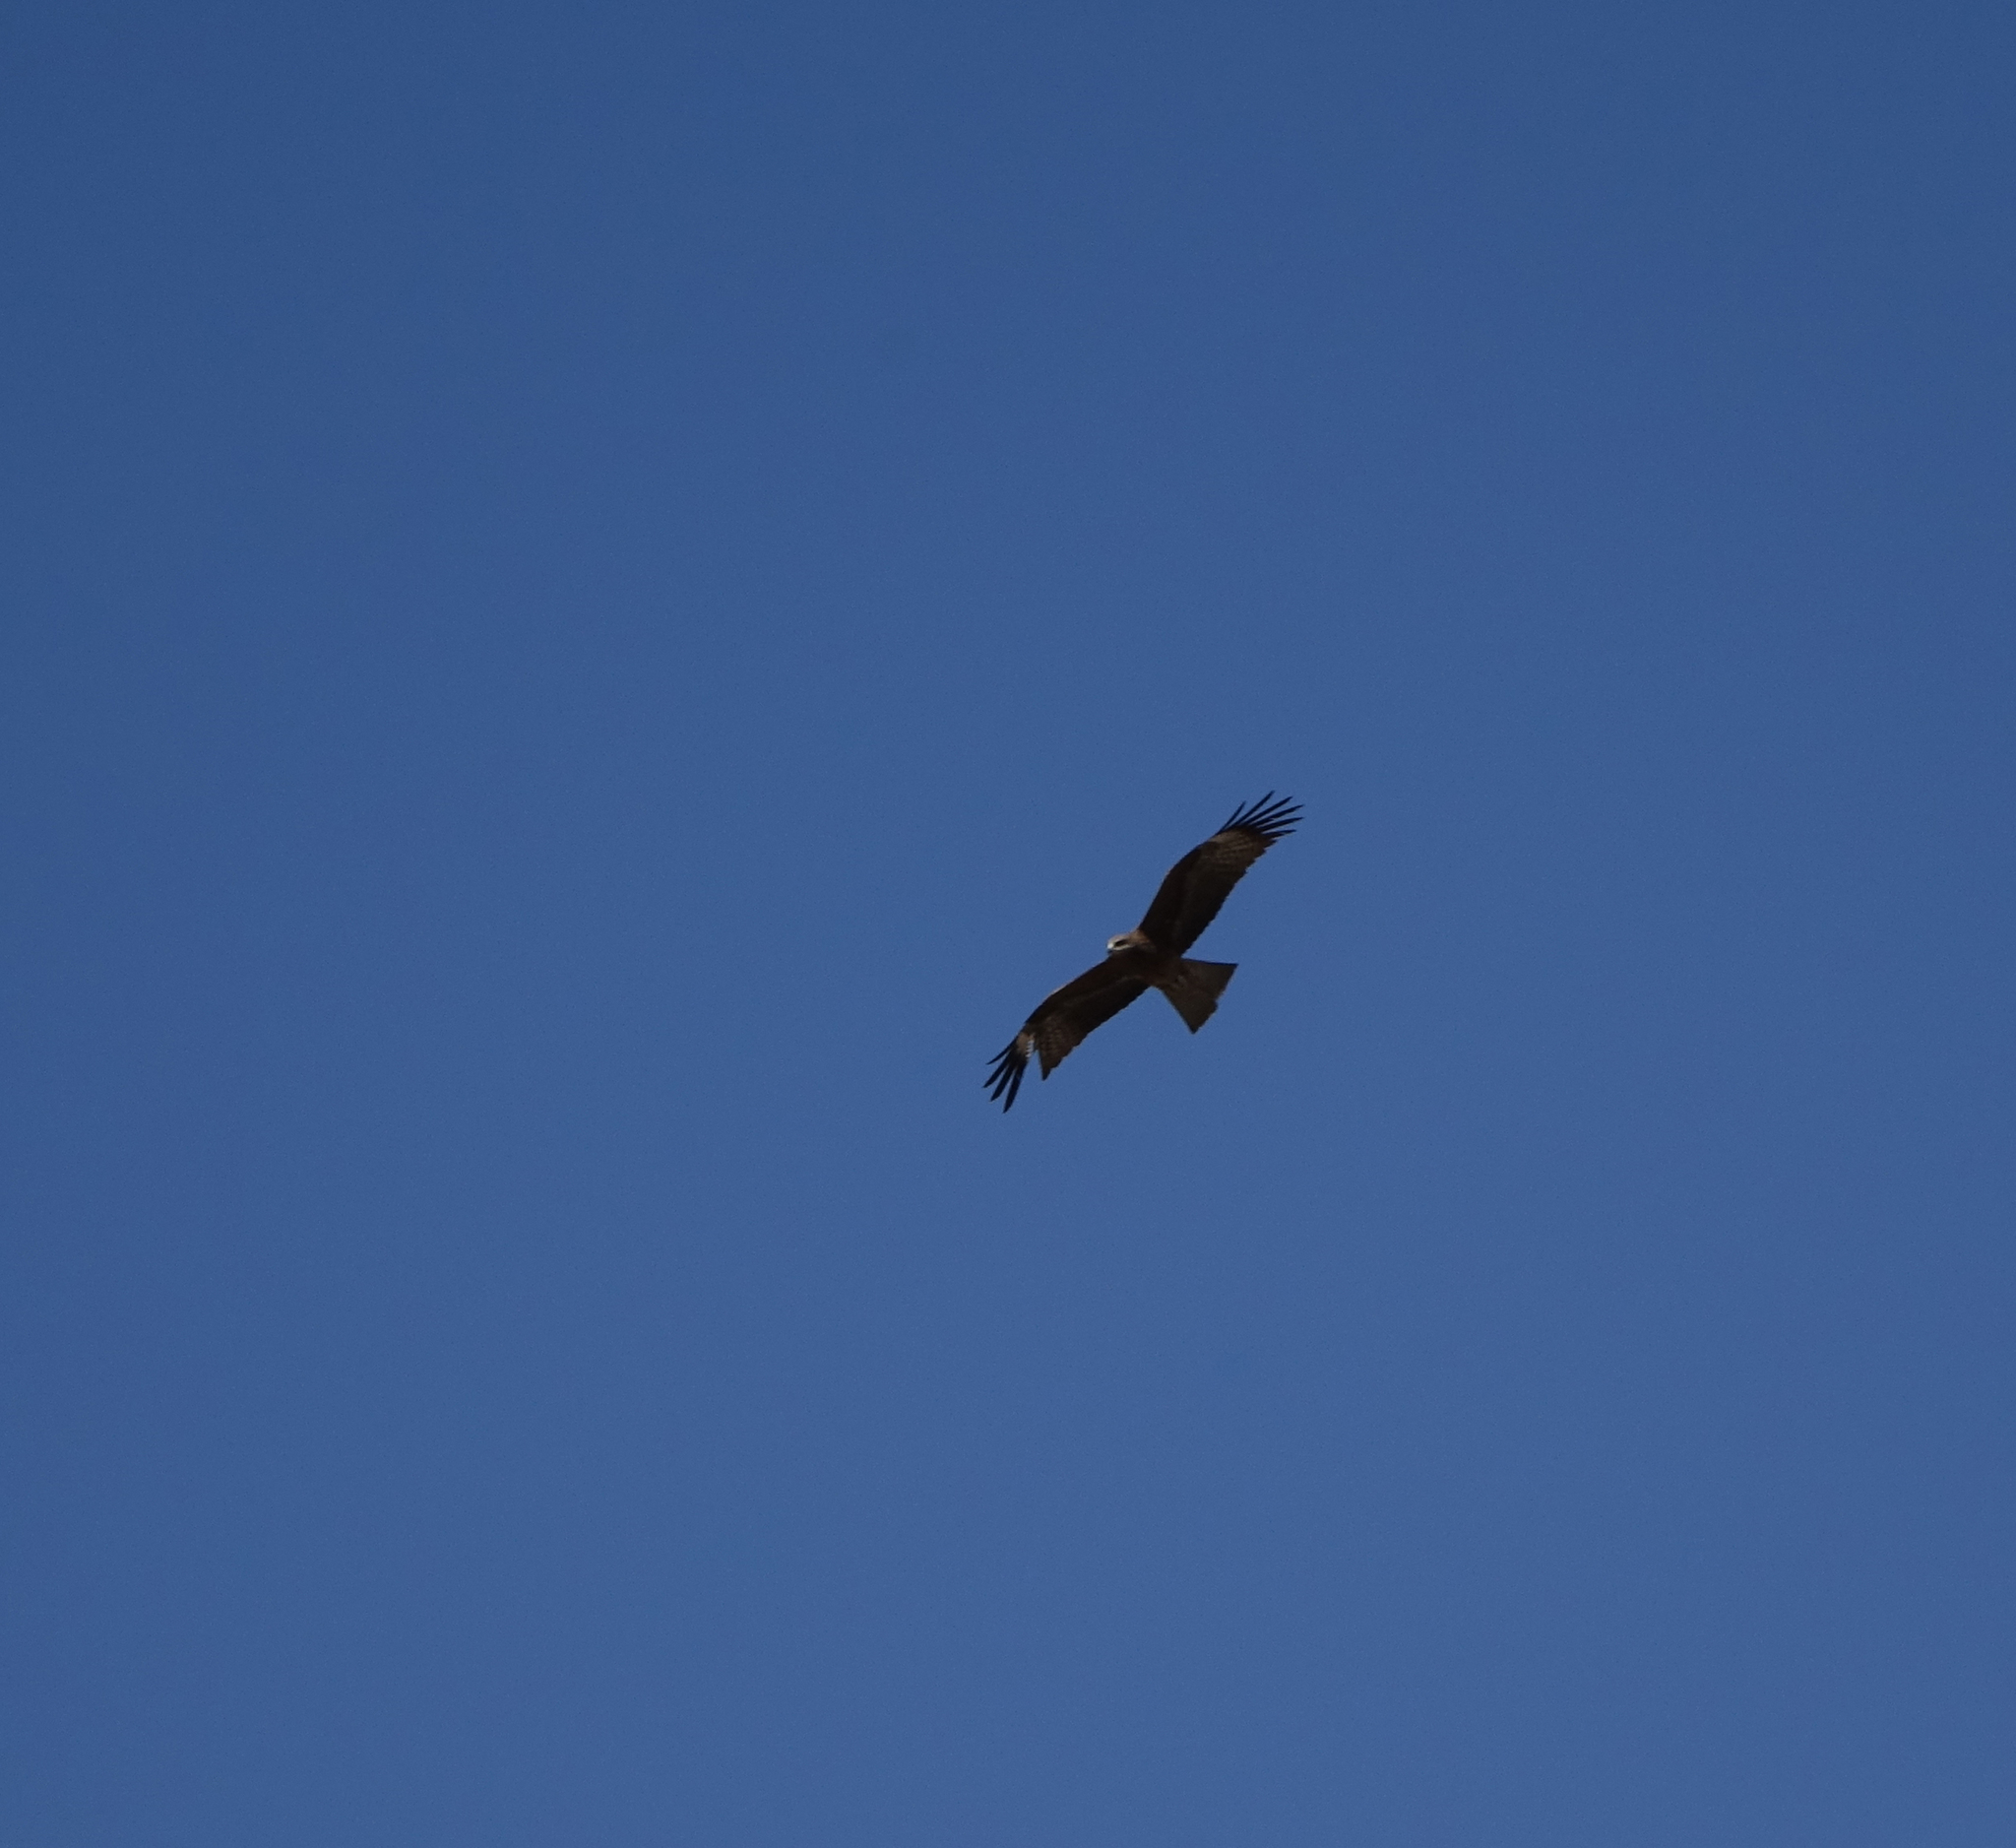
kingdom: Animalia
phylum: Chordata
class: Aves
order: Accipitriformes
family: Accipitridae
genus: Milvus
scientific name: Milvus migrans
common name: Black kite
